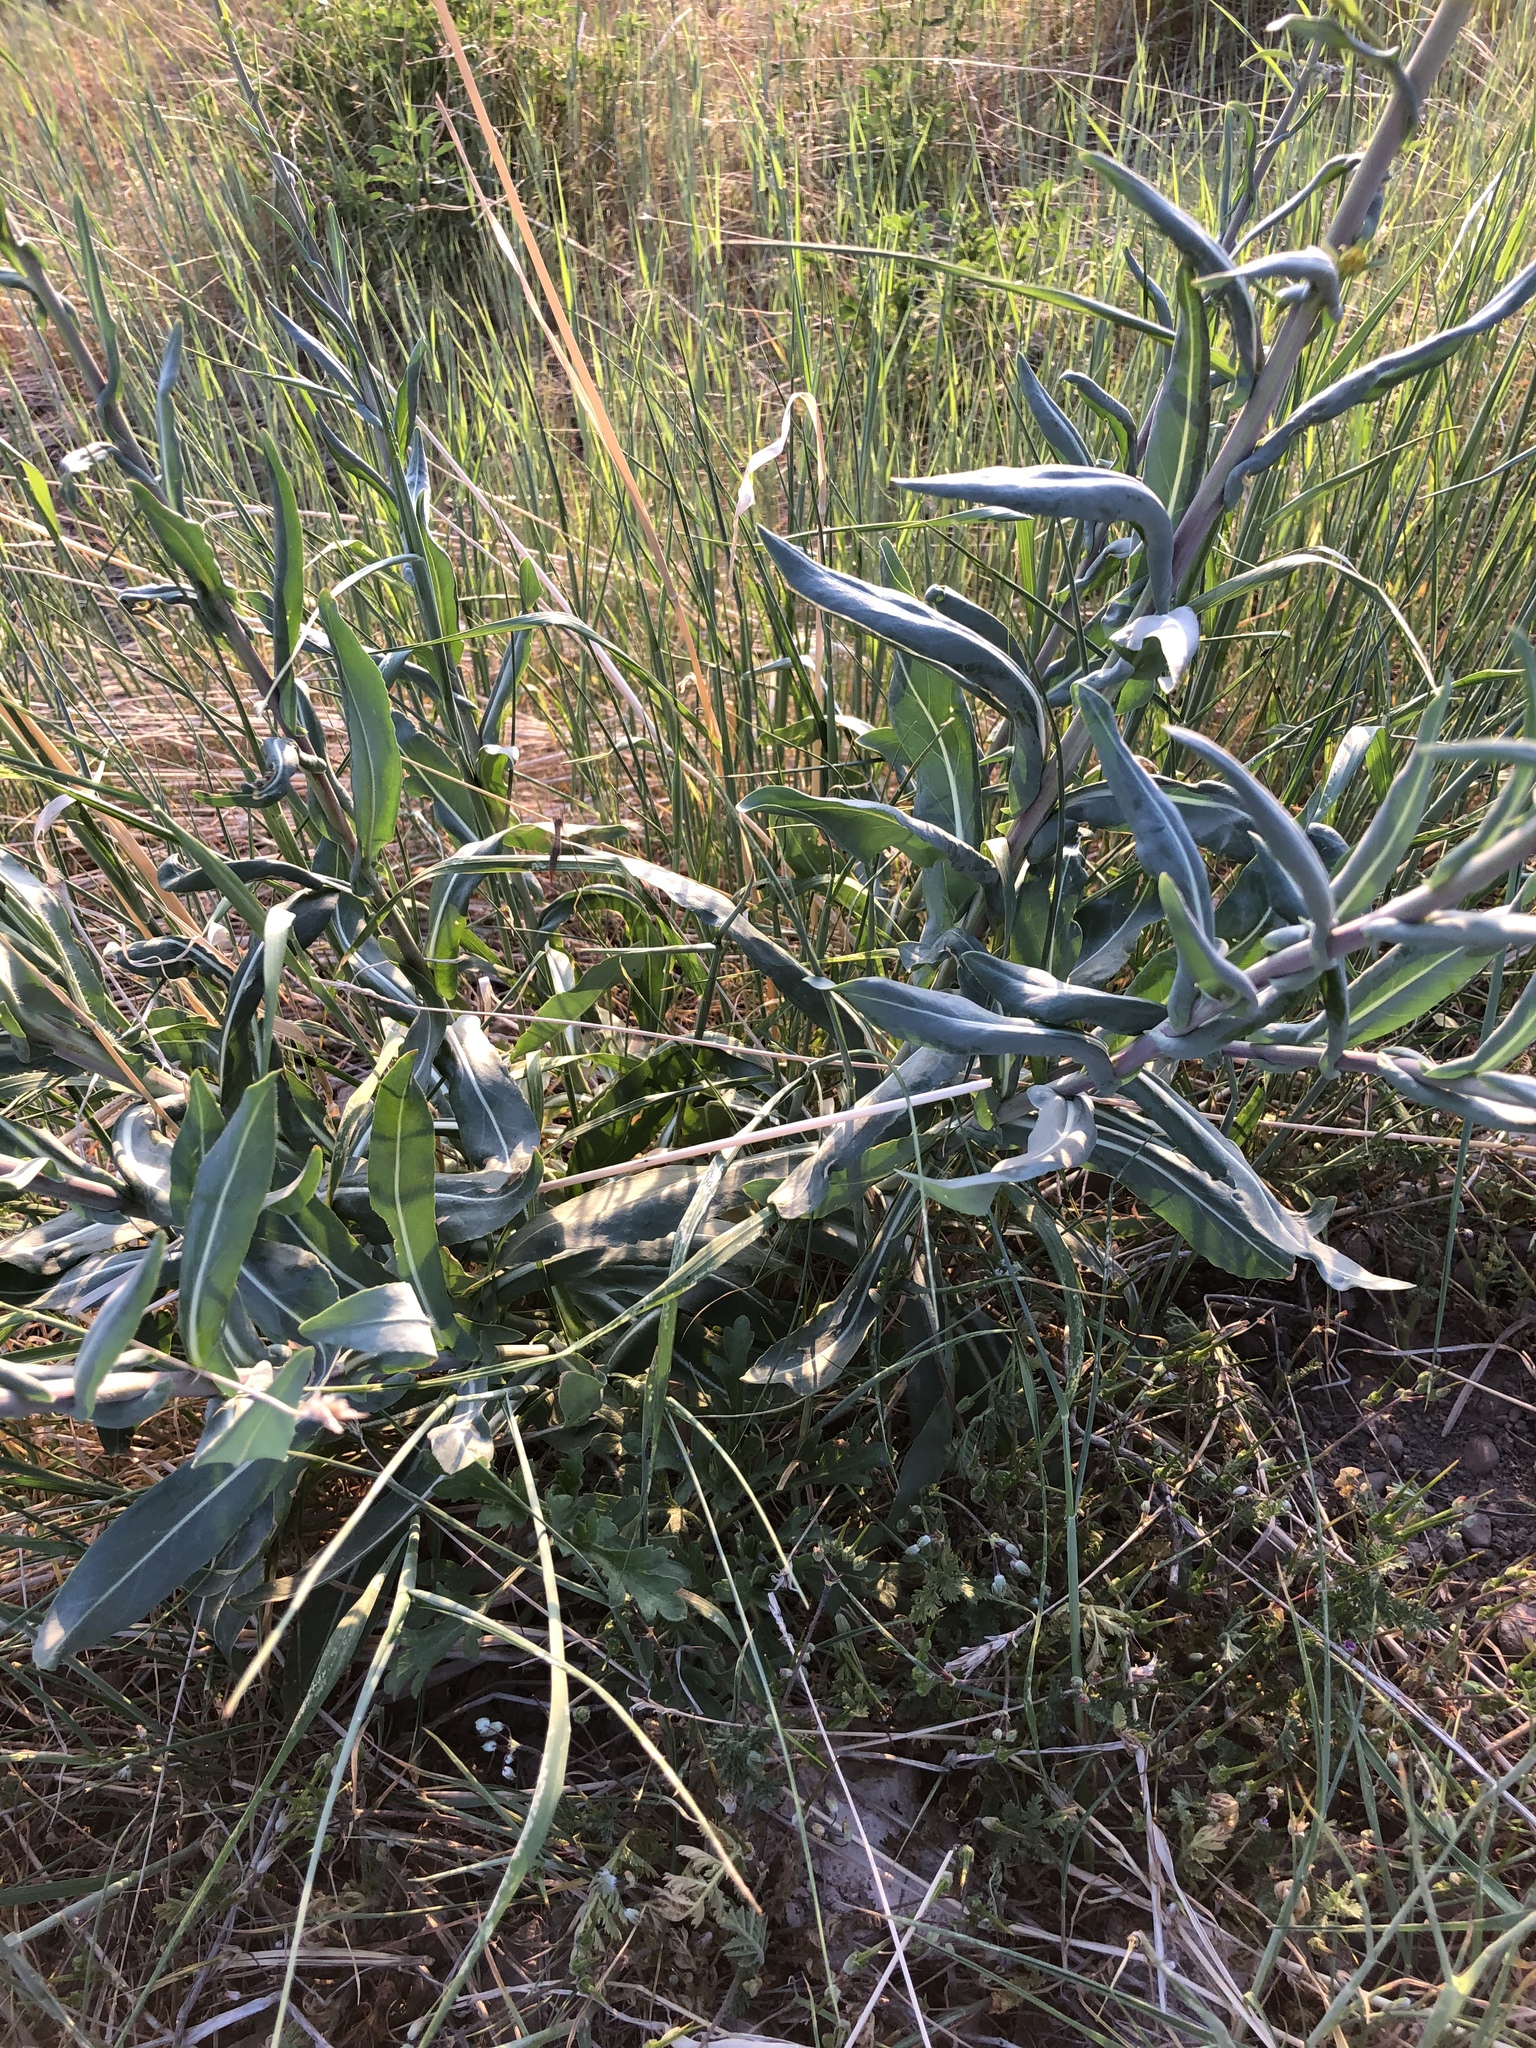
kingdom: Plantae
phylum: Tracheophyta
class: Magnoliopsida
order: Brassicales
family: Brassicaceae
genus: Isatis
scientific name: Isatis tinctoria
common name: Woad
